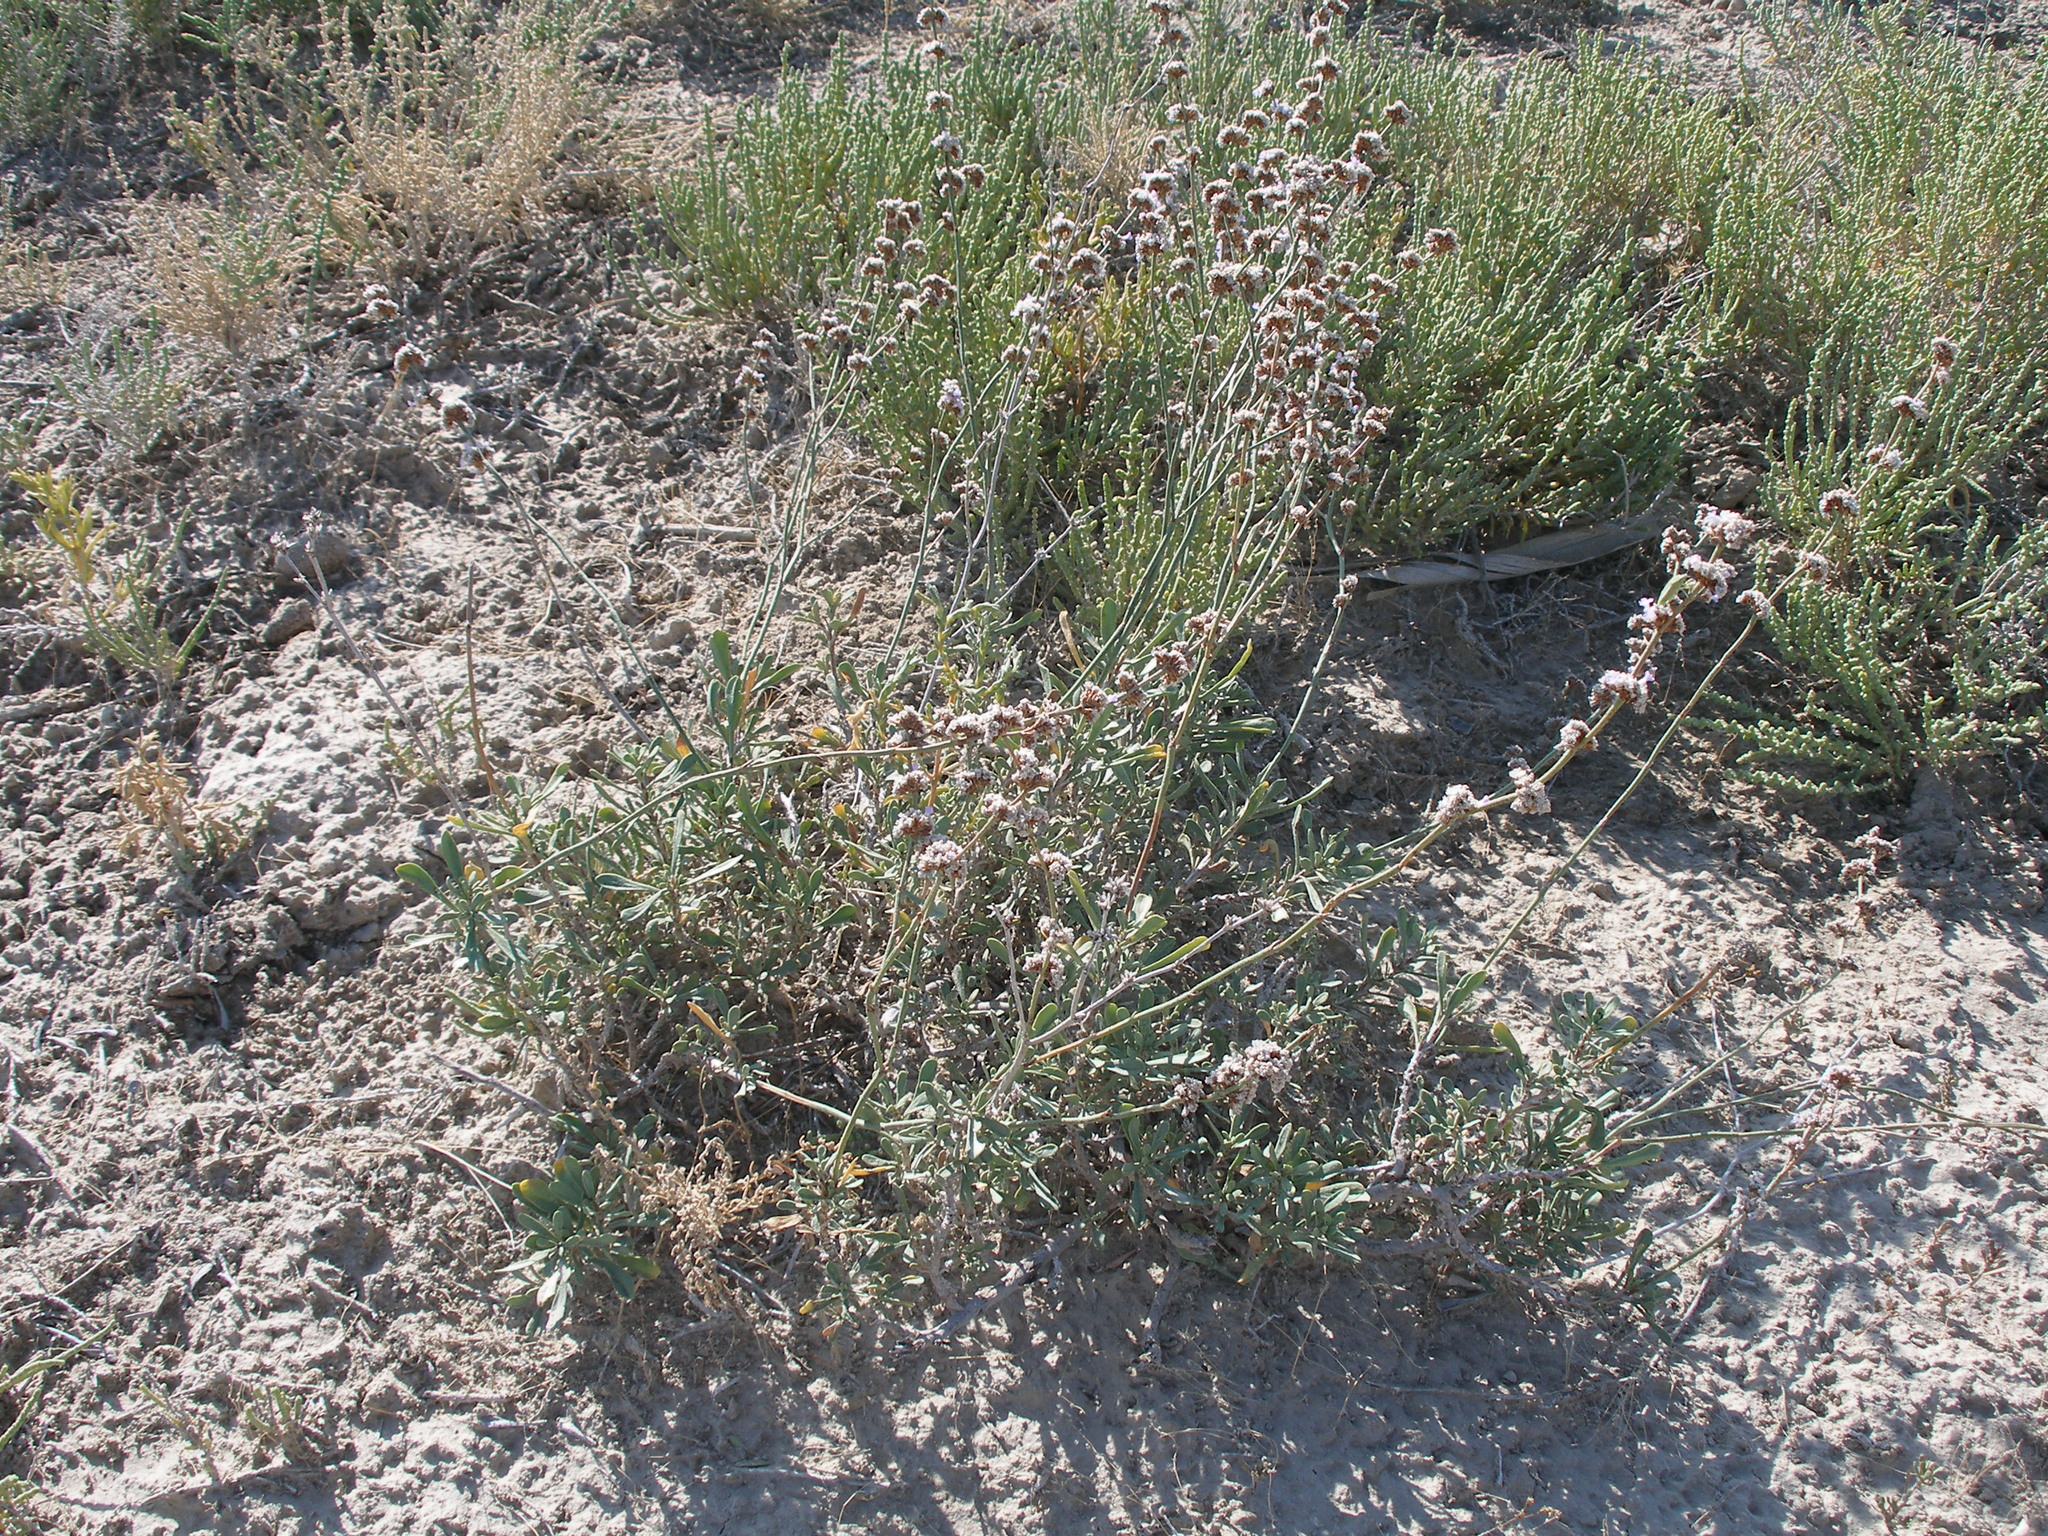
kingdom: Plantae
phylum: Tracheophyta
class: Magnoliopsida
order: Caryophyllales
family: Plumbaginaceae
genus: Limonium
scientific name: Limonium suffruticosum
